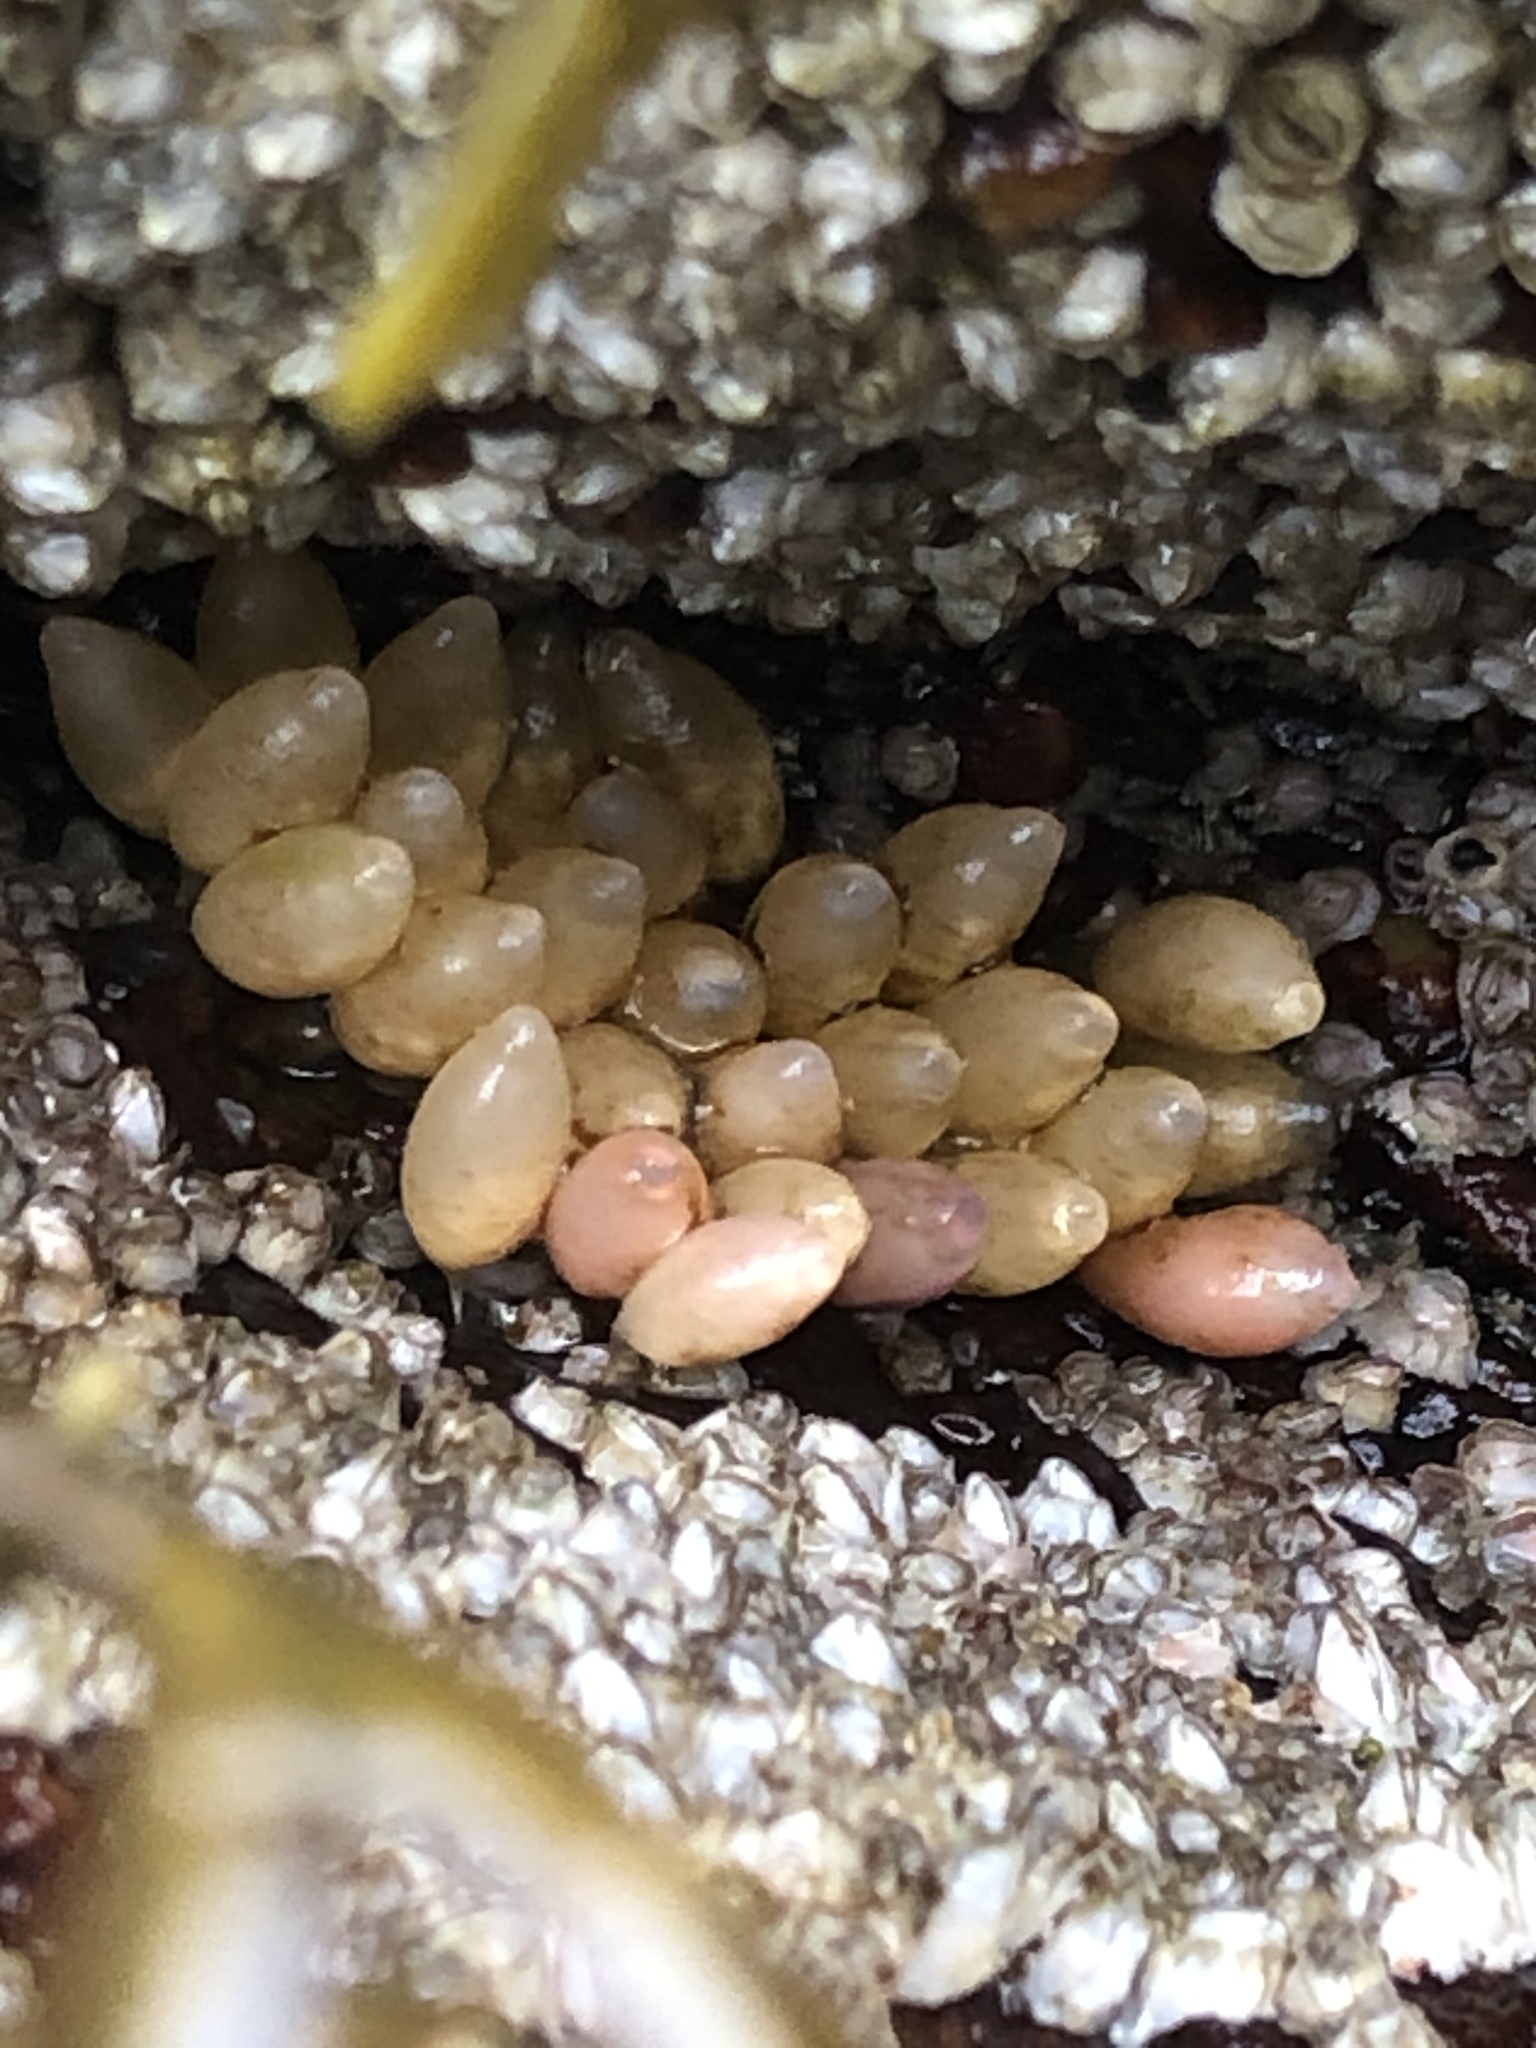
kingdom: Animalia
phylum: Mollusca
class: Gastropoda
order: Neogastropoda
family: Muricidae
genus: Nucella
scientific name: Nucella lapillus
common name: Dog whelk
